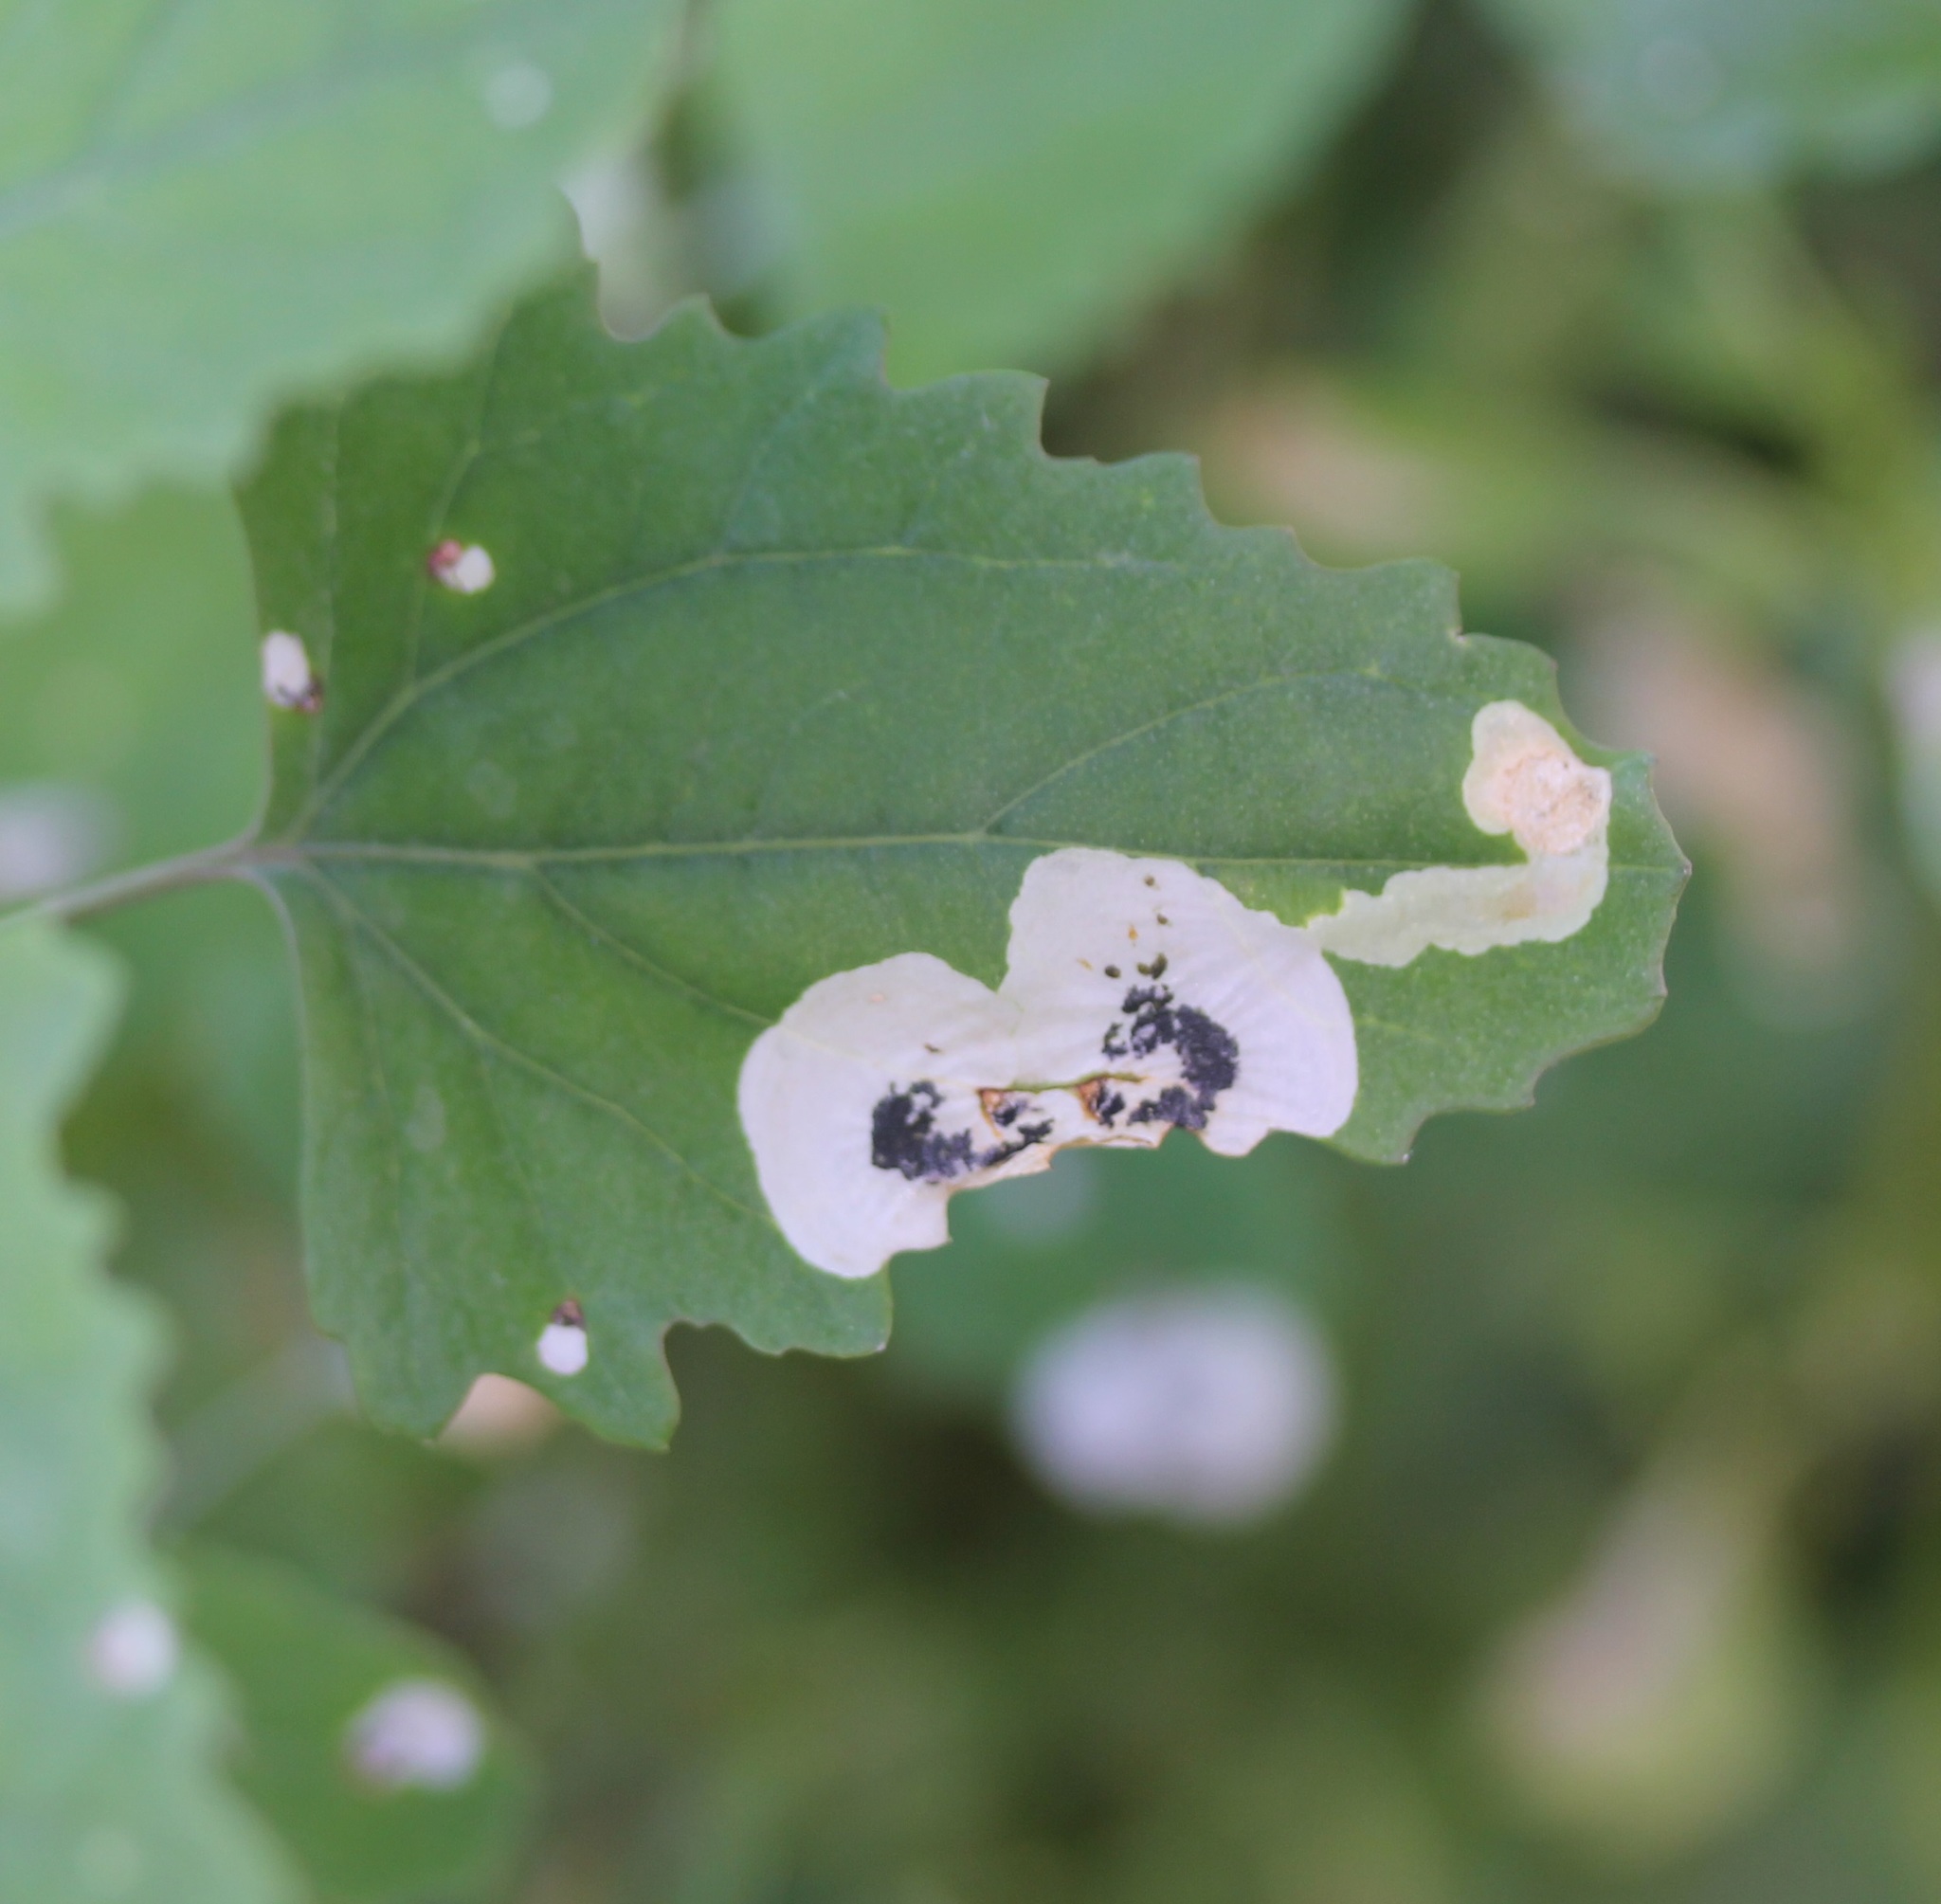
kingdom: Animalia
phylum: Arthropoda
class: Insecta
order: Lepidoptera
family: Gelechiidae
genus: Chrysoesthia
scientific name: Chrysoesthia sexguttella
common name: Moth
